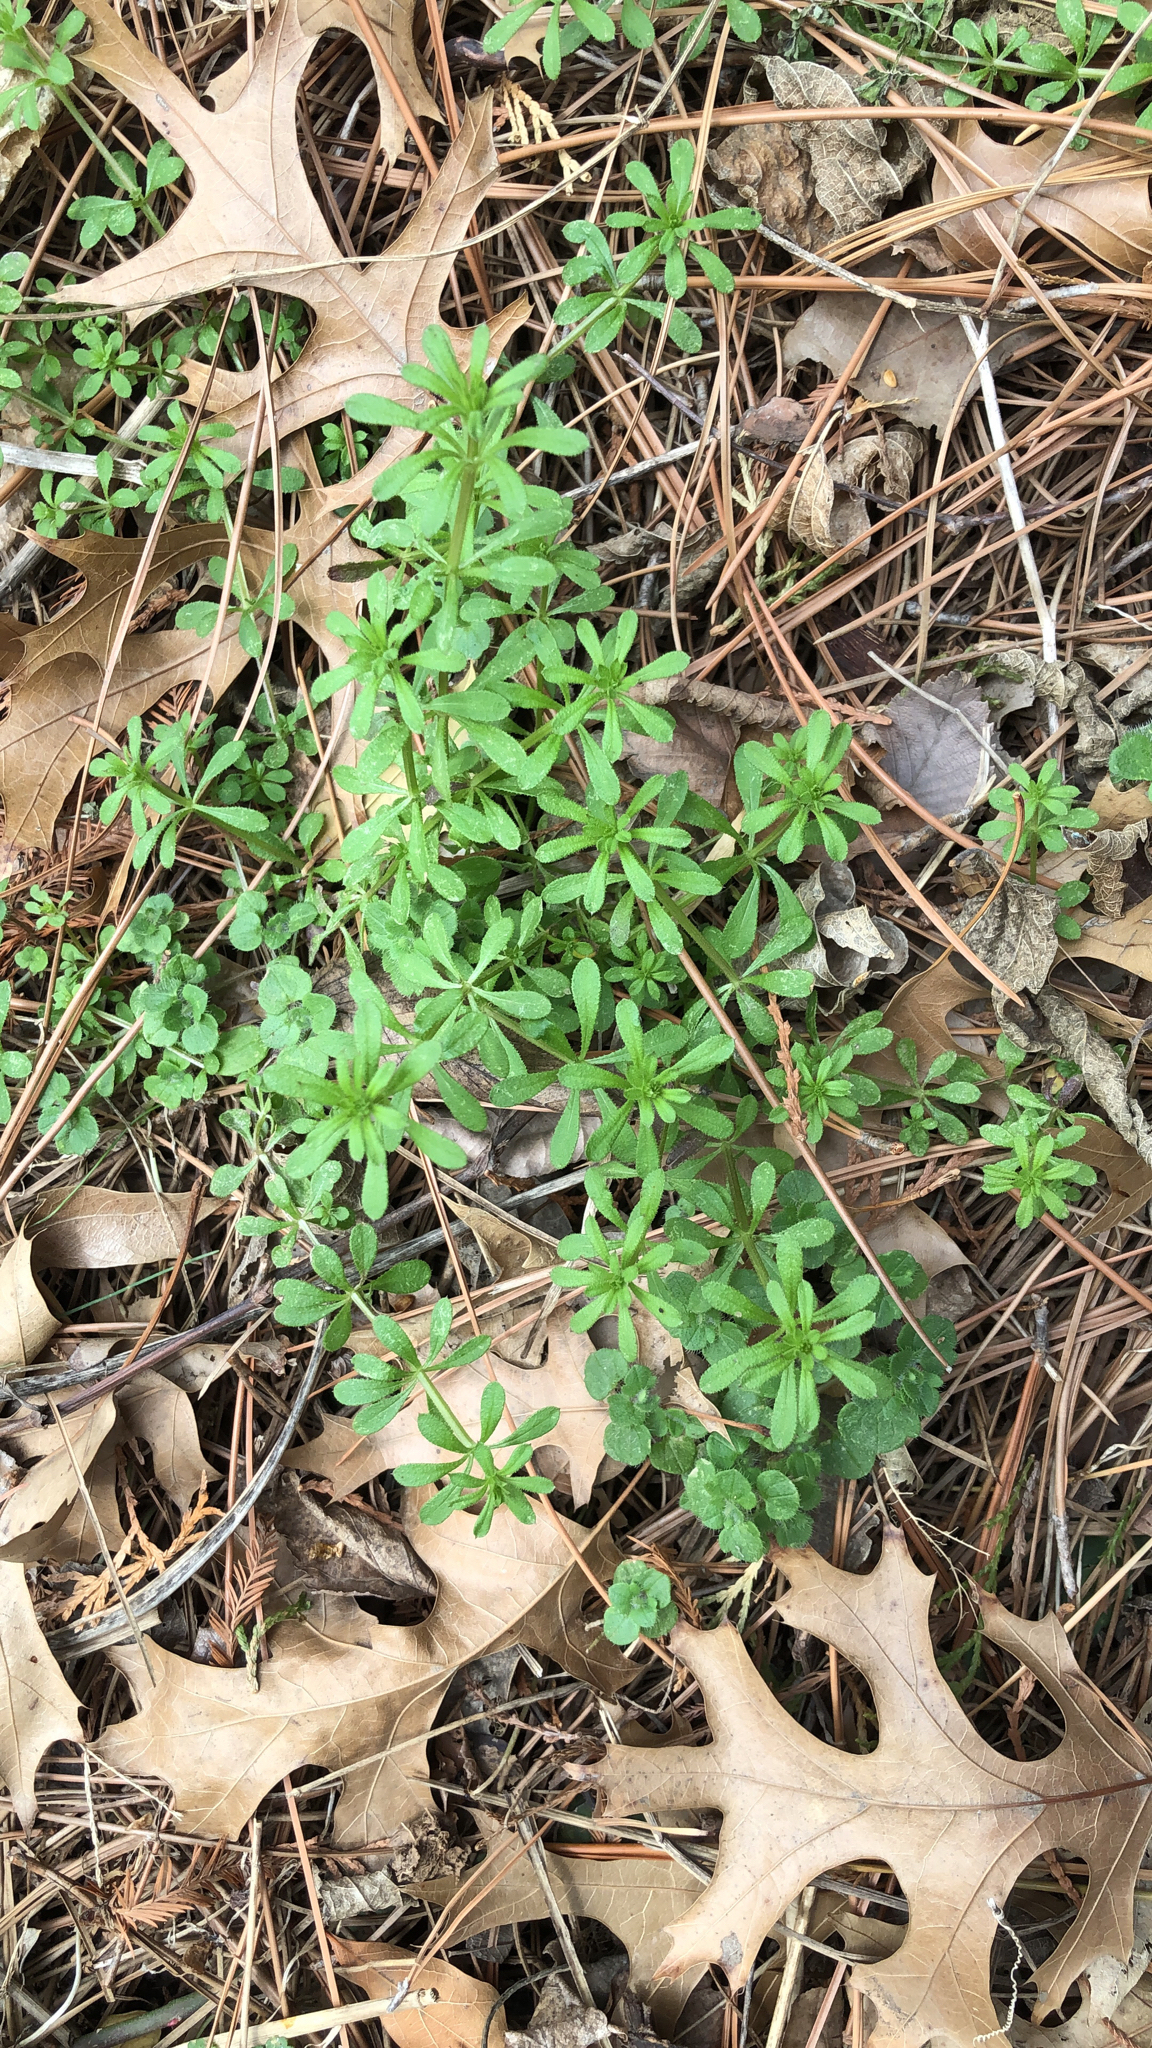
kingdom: Plantae
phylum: Tracheophyta
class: Magnoliopsida
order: Gentianales
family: Rubiaceae
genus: Galium
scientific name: Galium aparine
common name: Cleavers
